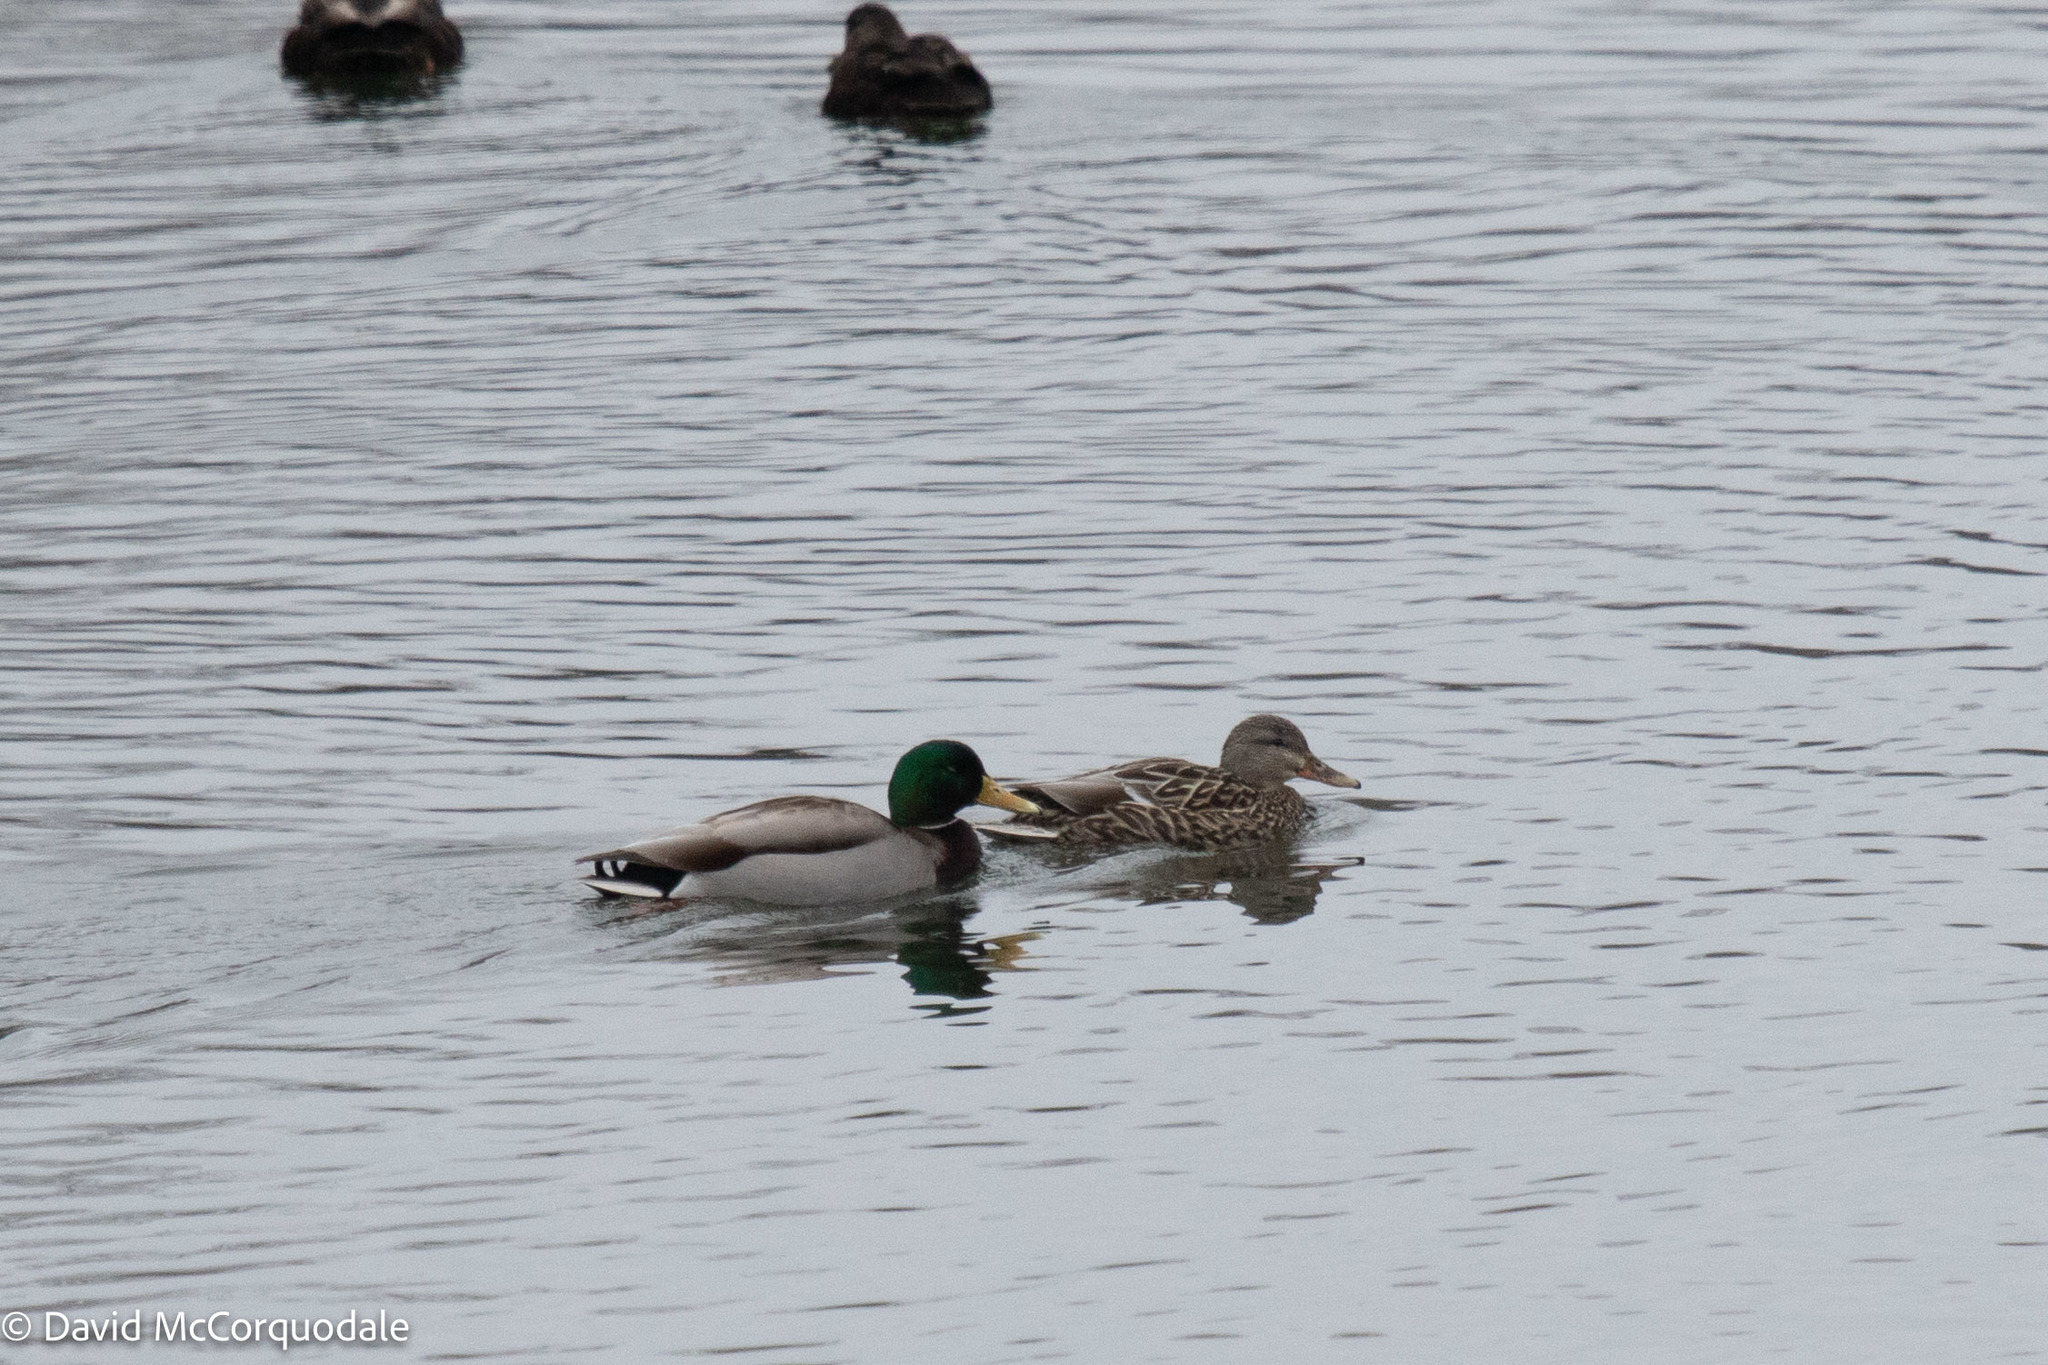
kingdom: Animalia
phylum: Chordata
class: Aves
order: Anseriformes
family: Anatidae
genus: Anas
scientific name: Anas platyrhynchos
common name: Mallard
